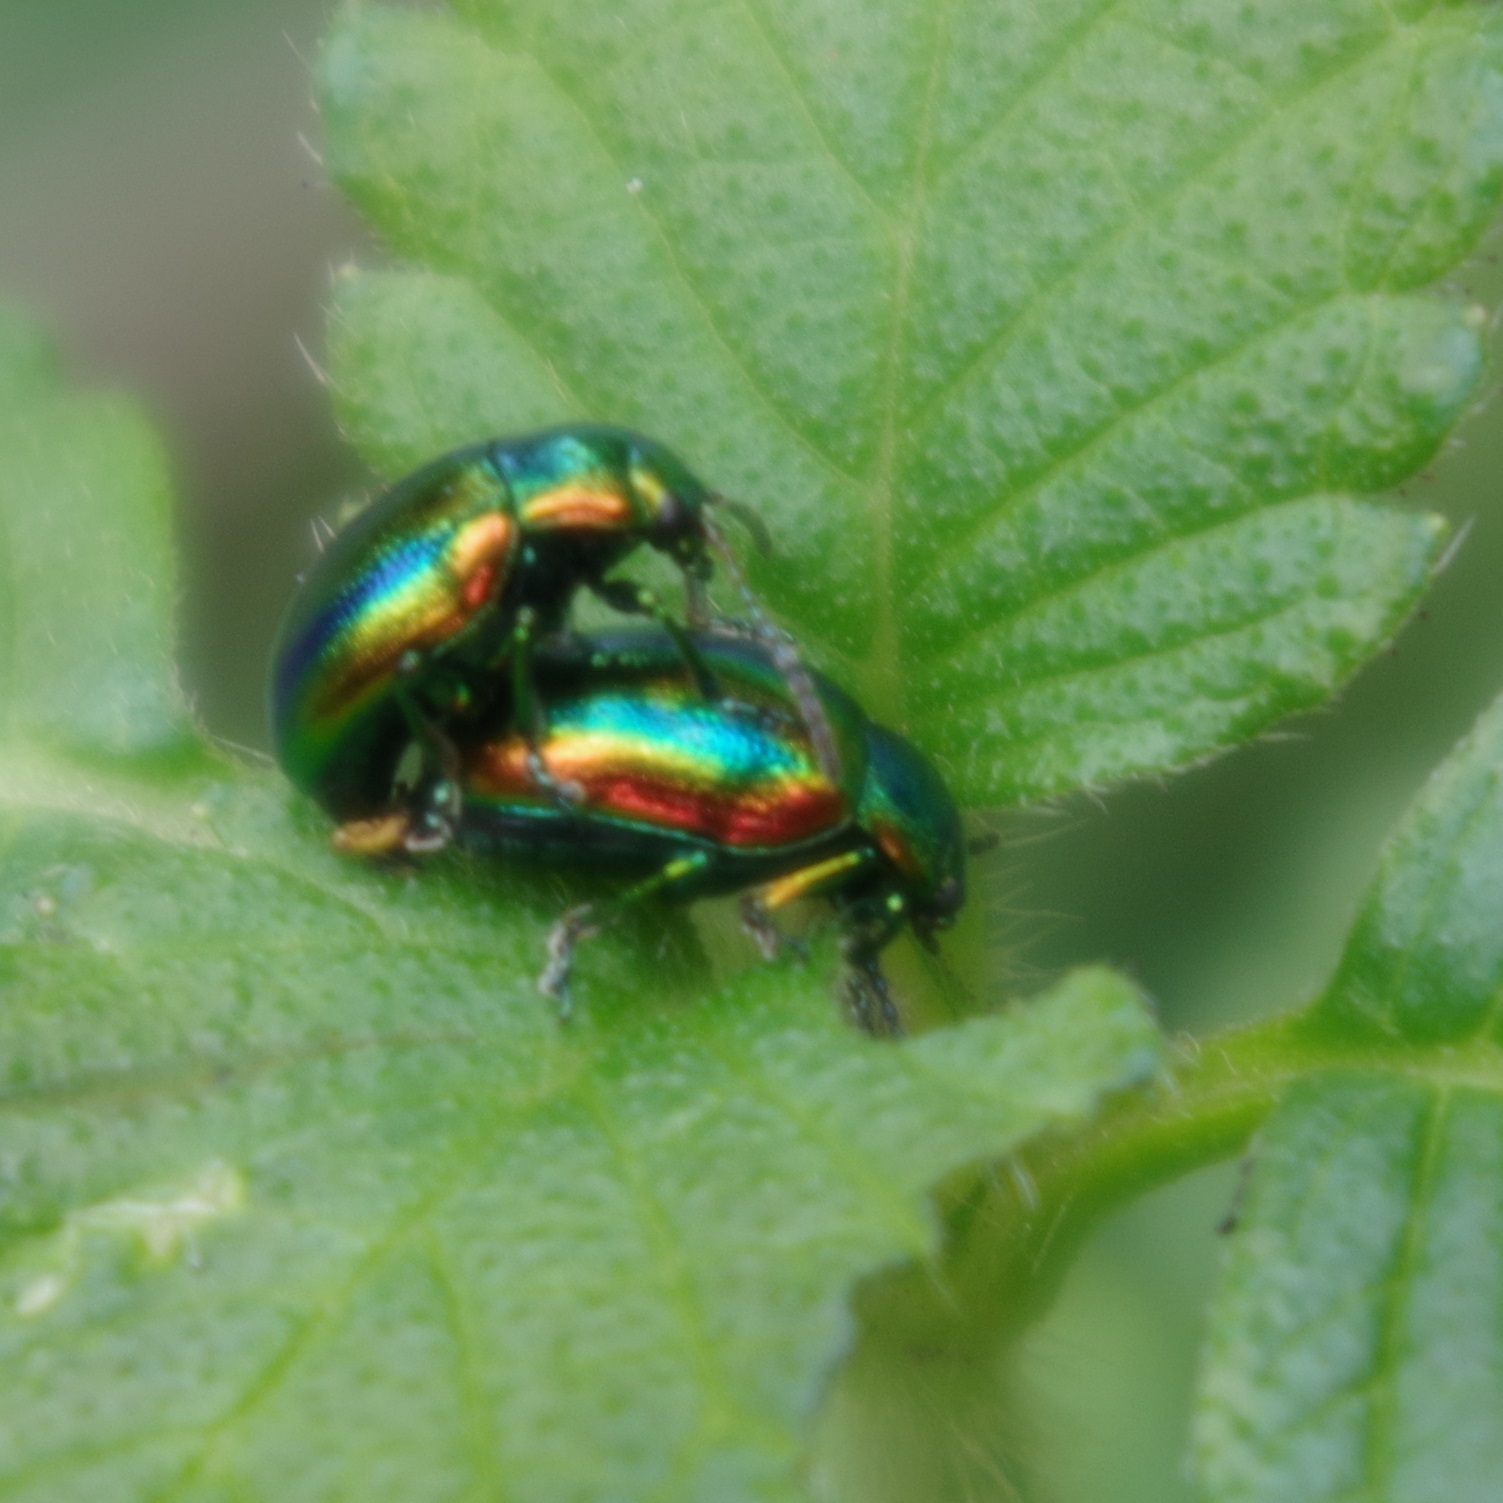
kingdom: Animalia
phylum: Arthropoda
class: Insecta
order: Coleoptera
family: Chrysomelidae
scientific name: Chrysomelidae
